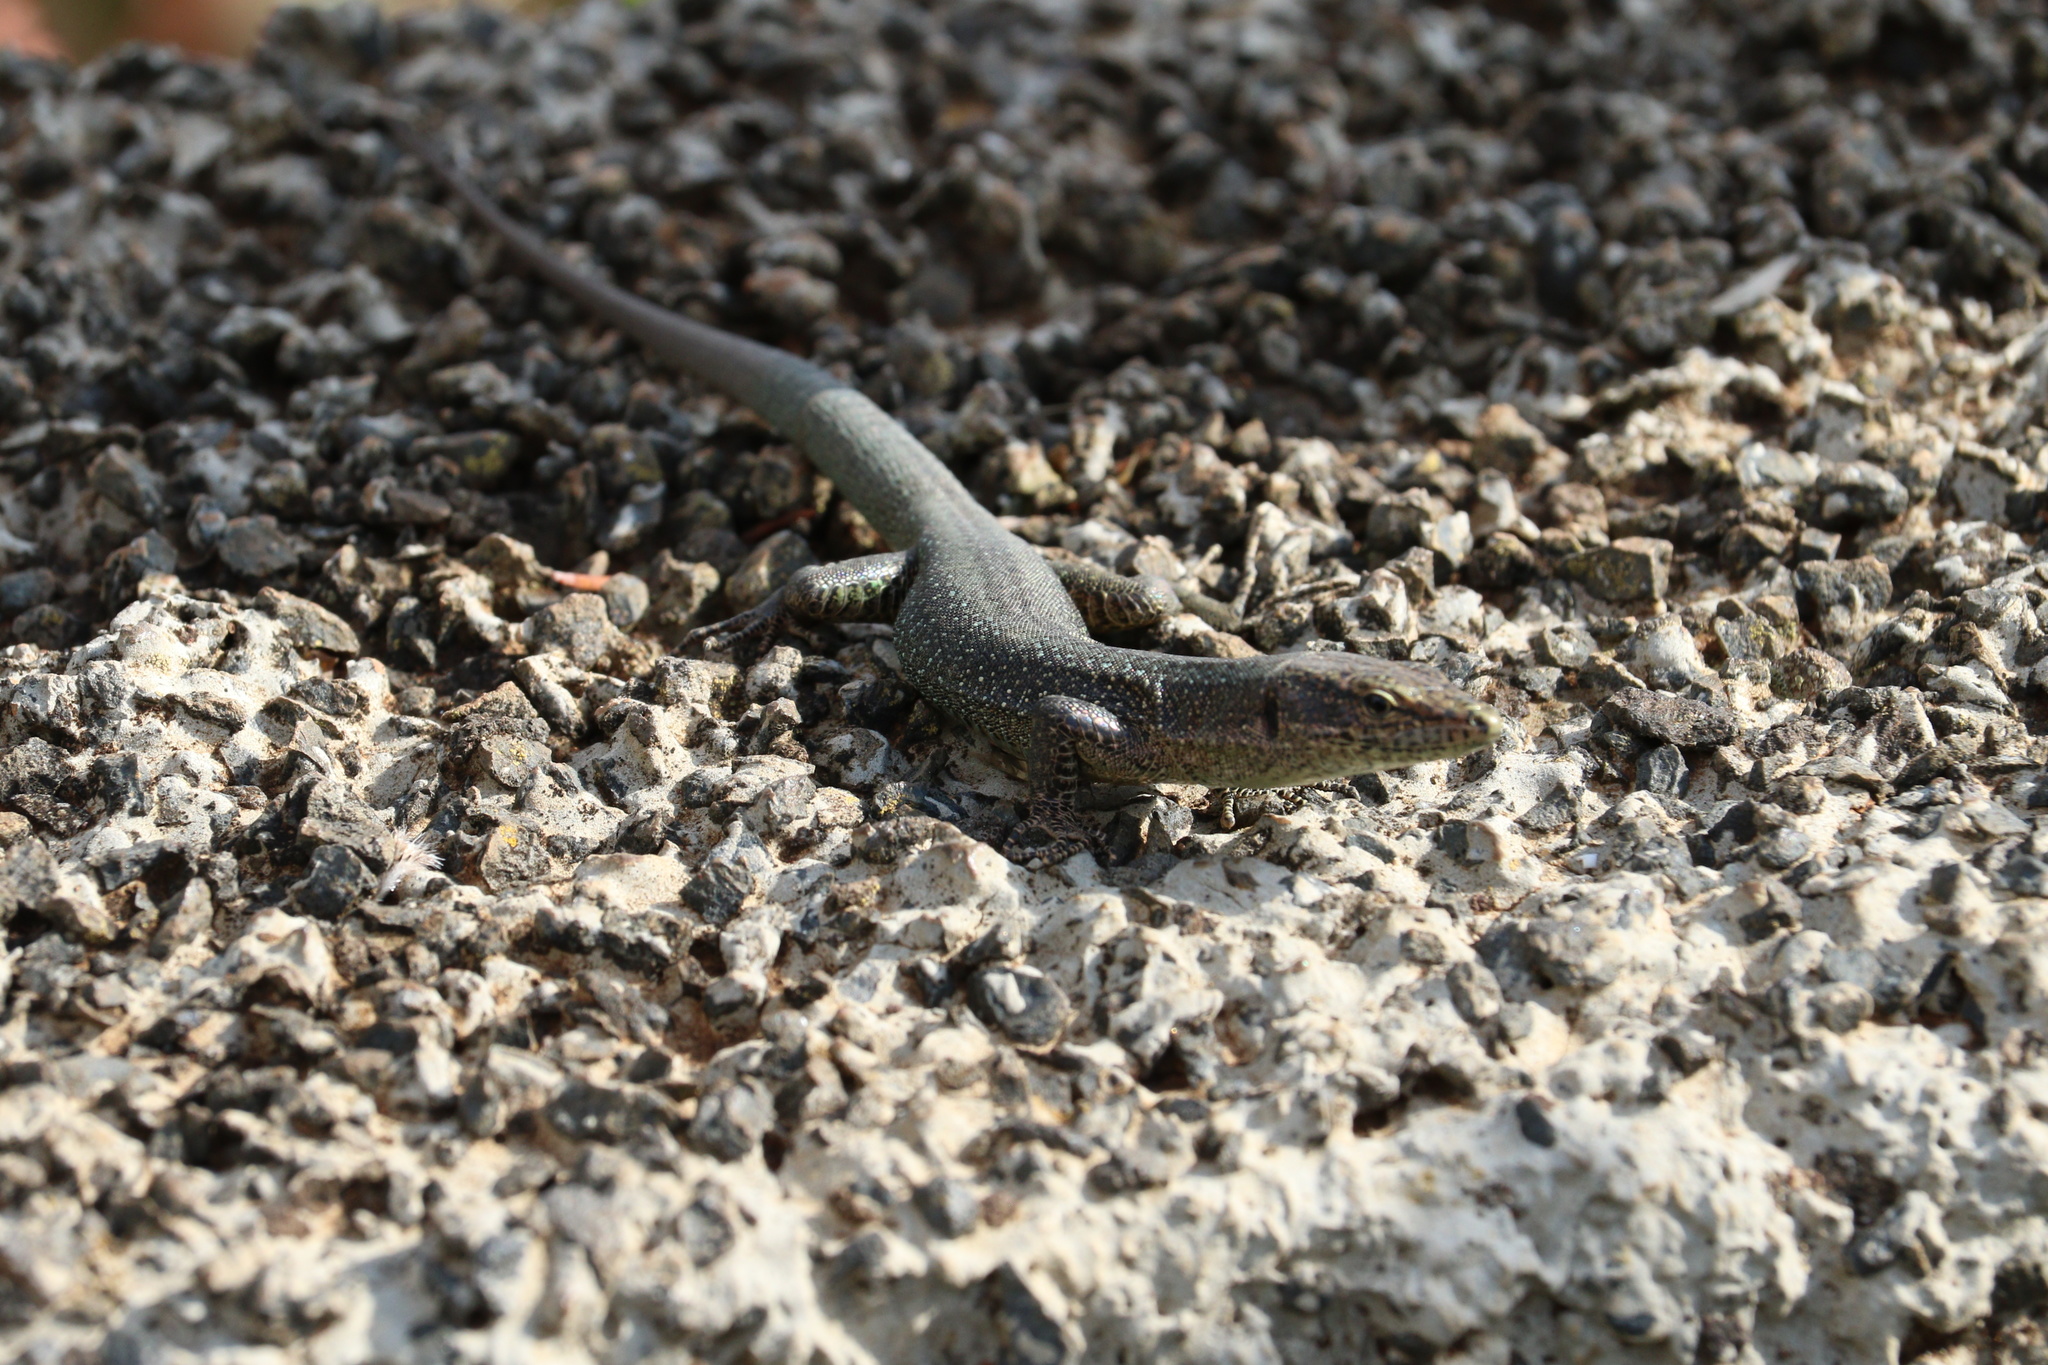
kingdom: Animalia
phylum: Chordata
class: Squamata
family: Lacertidae
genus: Teira
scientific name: Teira dugesii
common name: Madeira lizard
